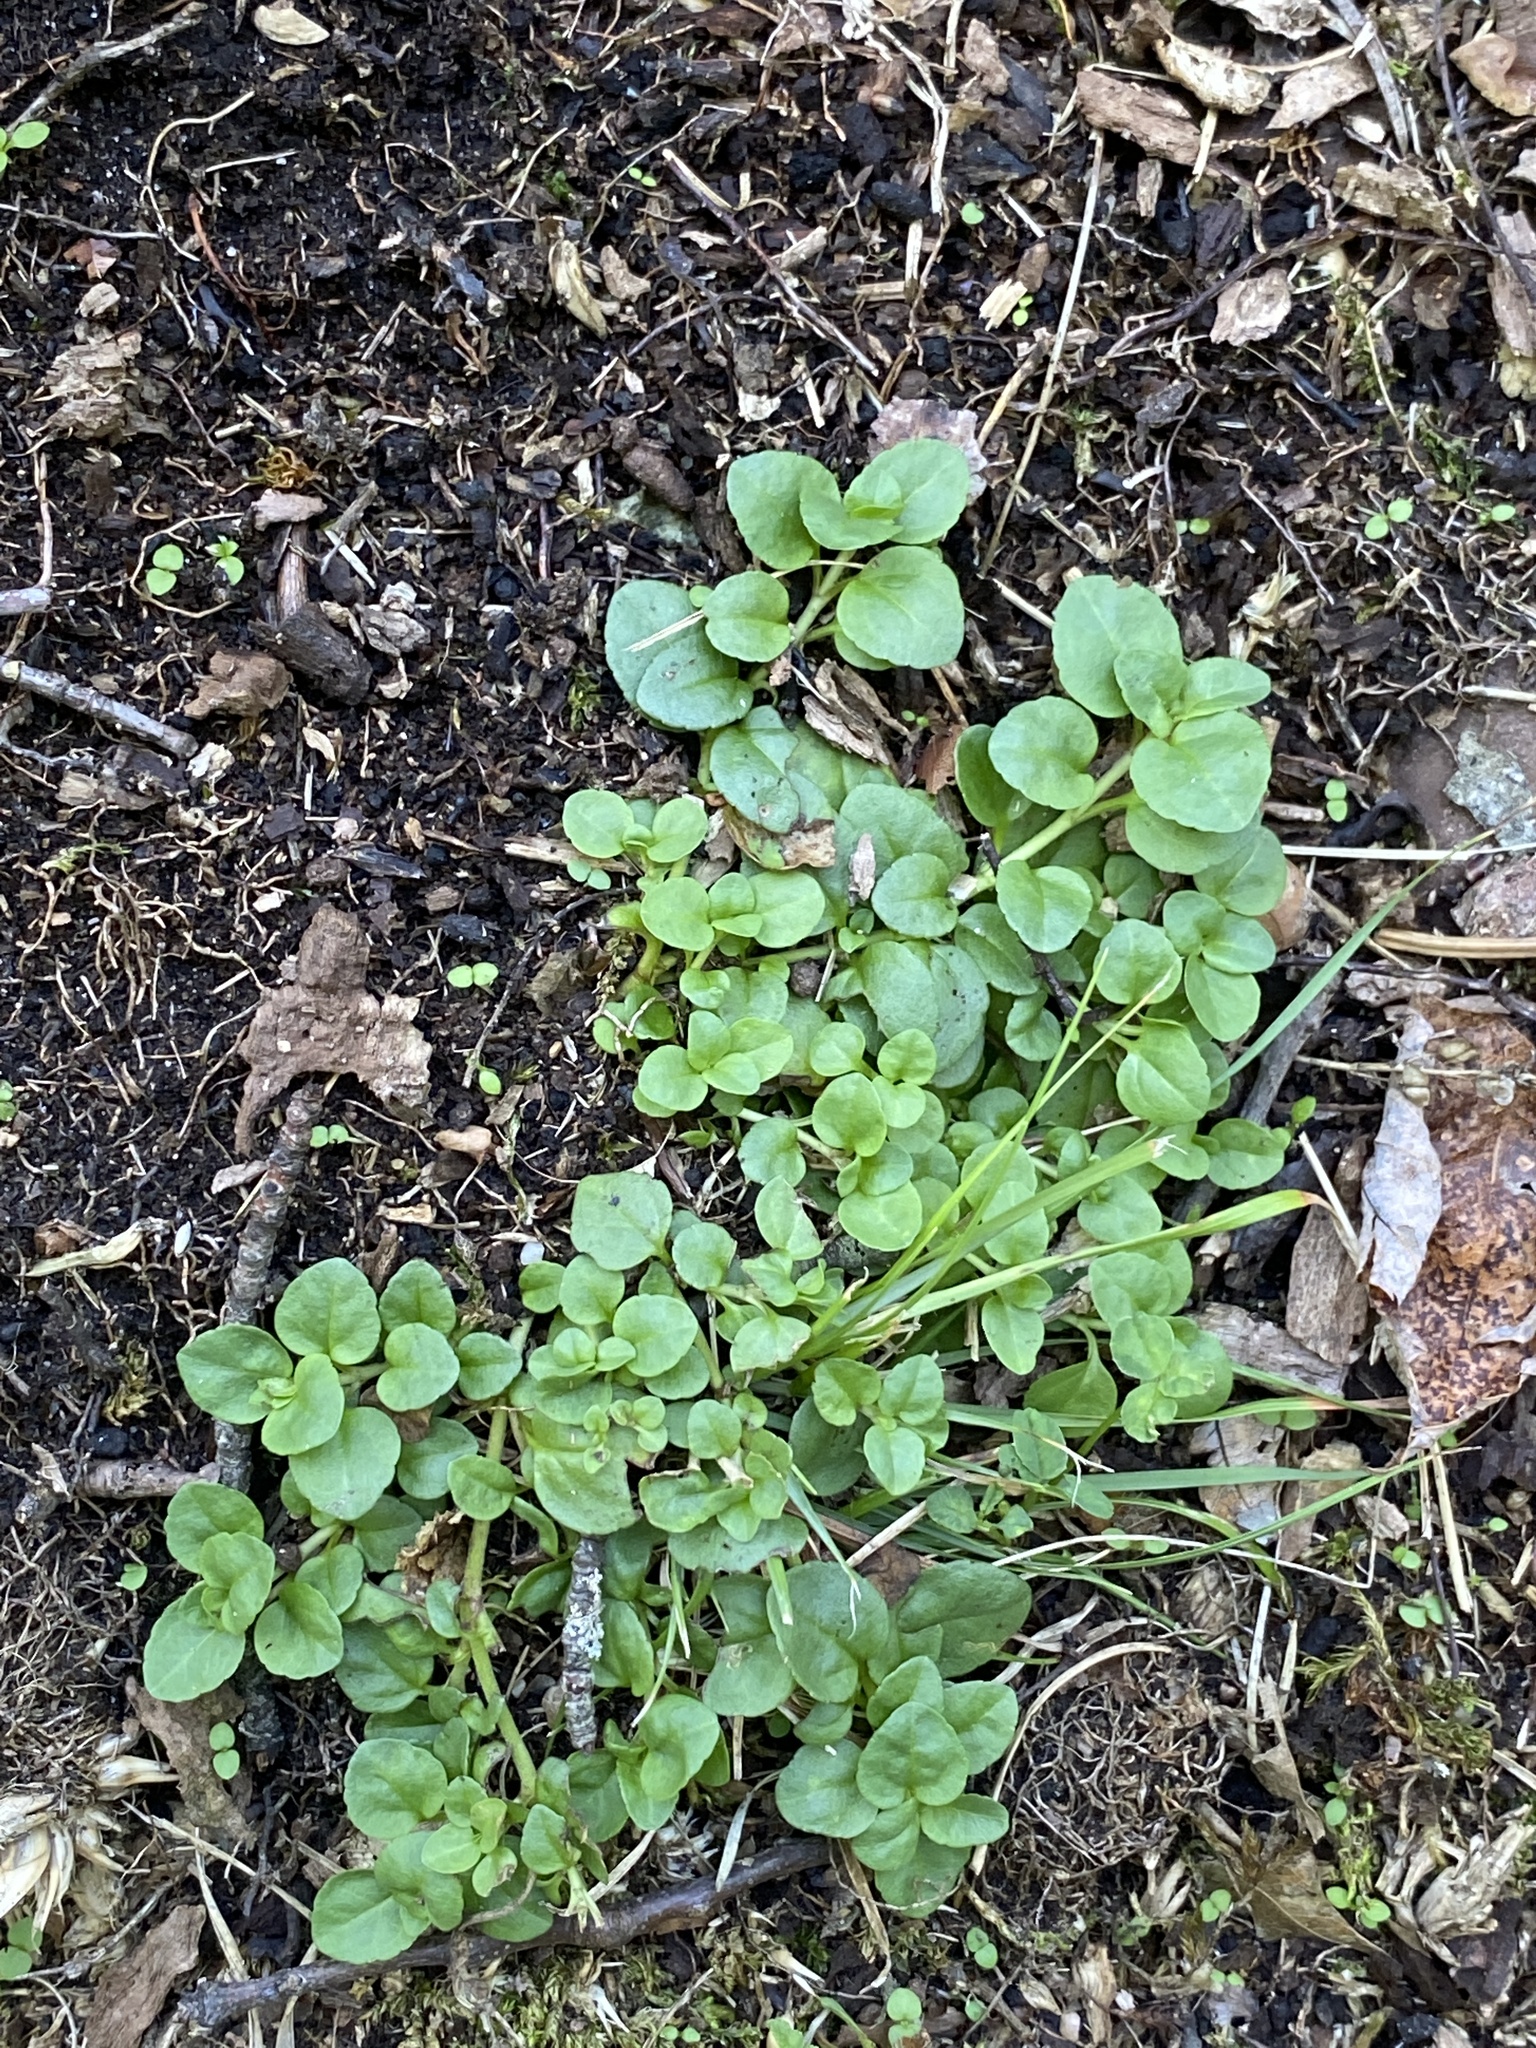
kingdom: Plantae
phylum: Tracheophyta
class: Magnoliopsida
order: Lamiales
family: Plantaginaceae
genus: Veronica
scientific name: Veronica serpyllifolia
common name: Thyme-leaved speedwell
